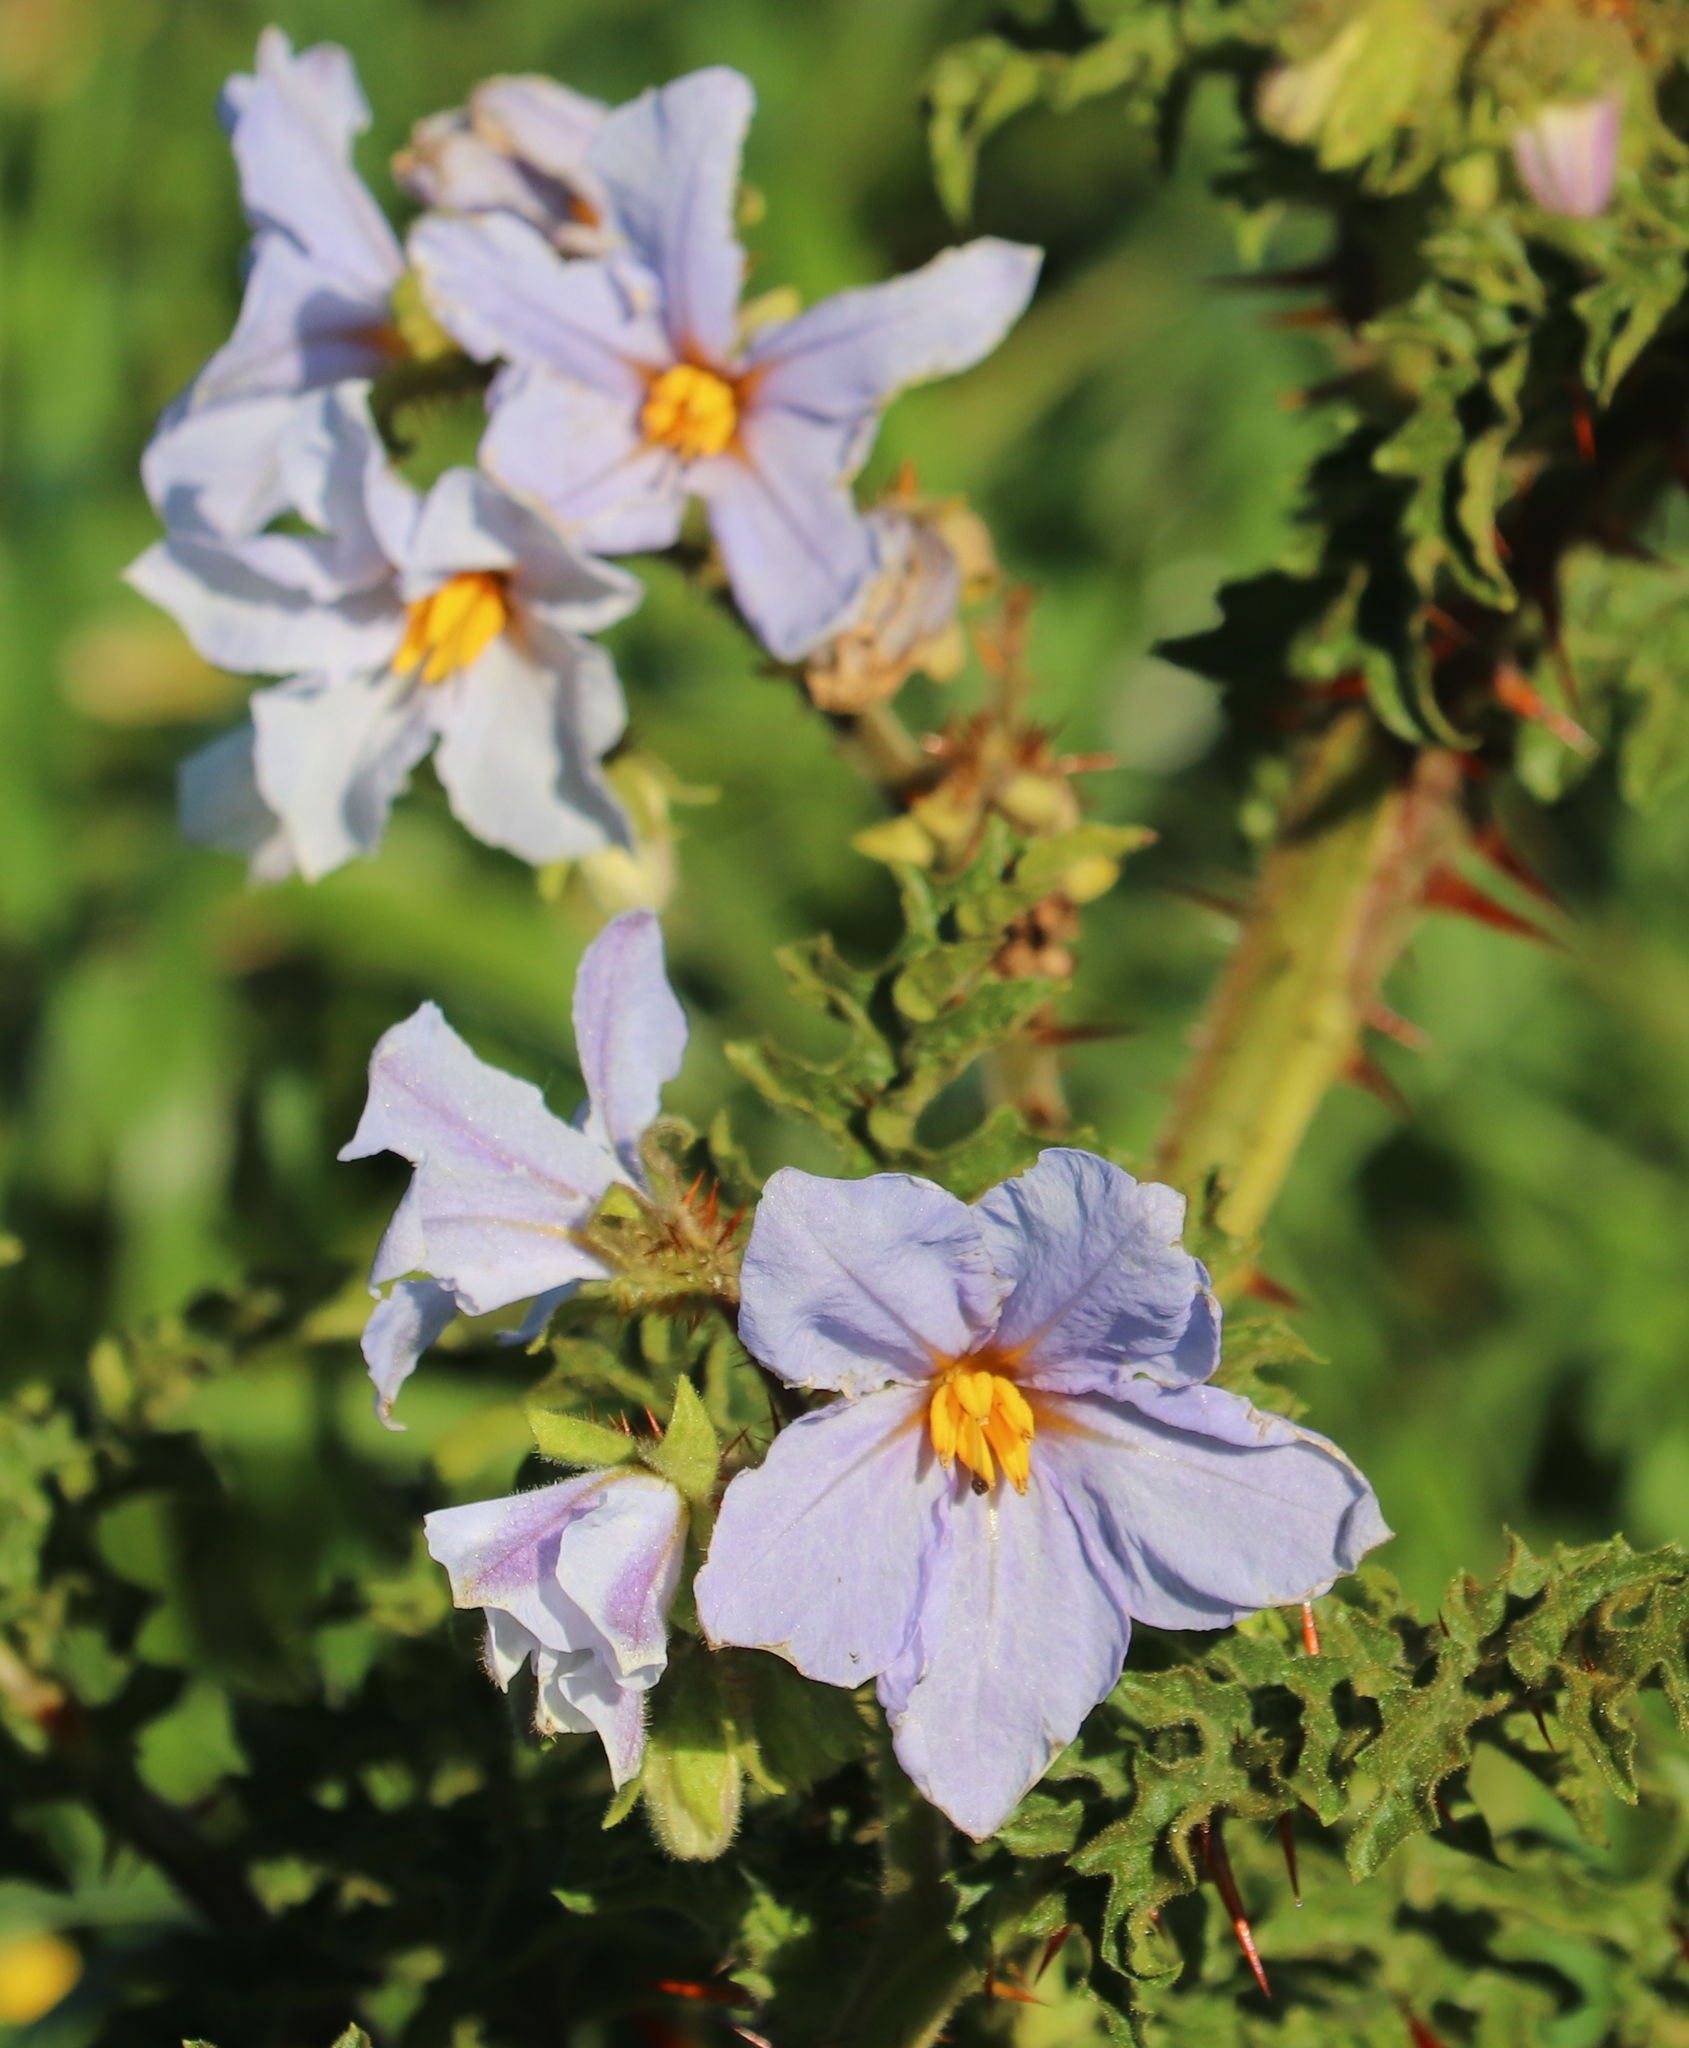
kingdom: Plantae
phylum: Tracheophyta
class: Magnoliopsida
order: Solanales
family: Solanaceae
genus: Solanum
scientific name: Solanum sisymbriifolium
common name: Red buffalo-bur
